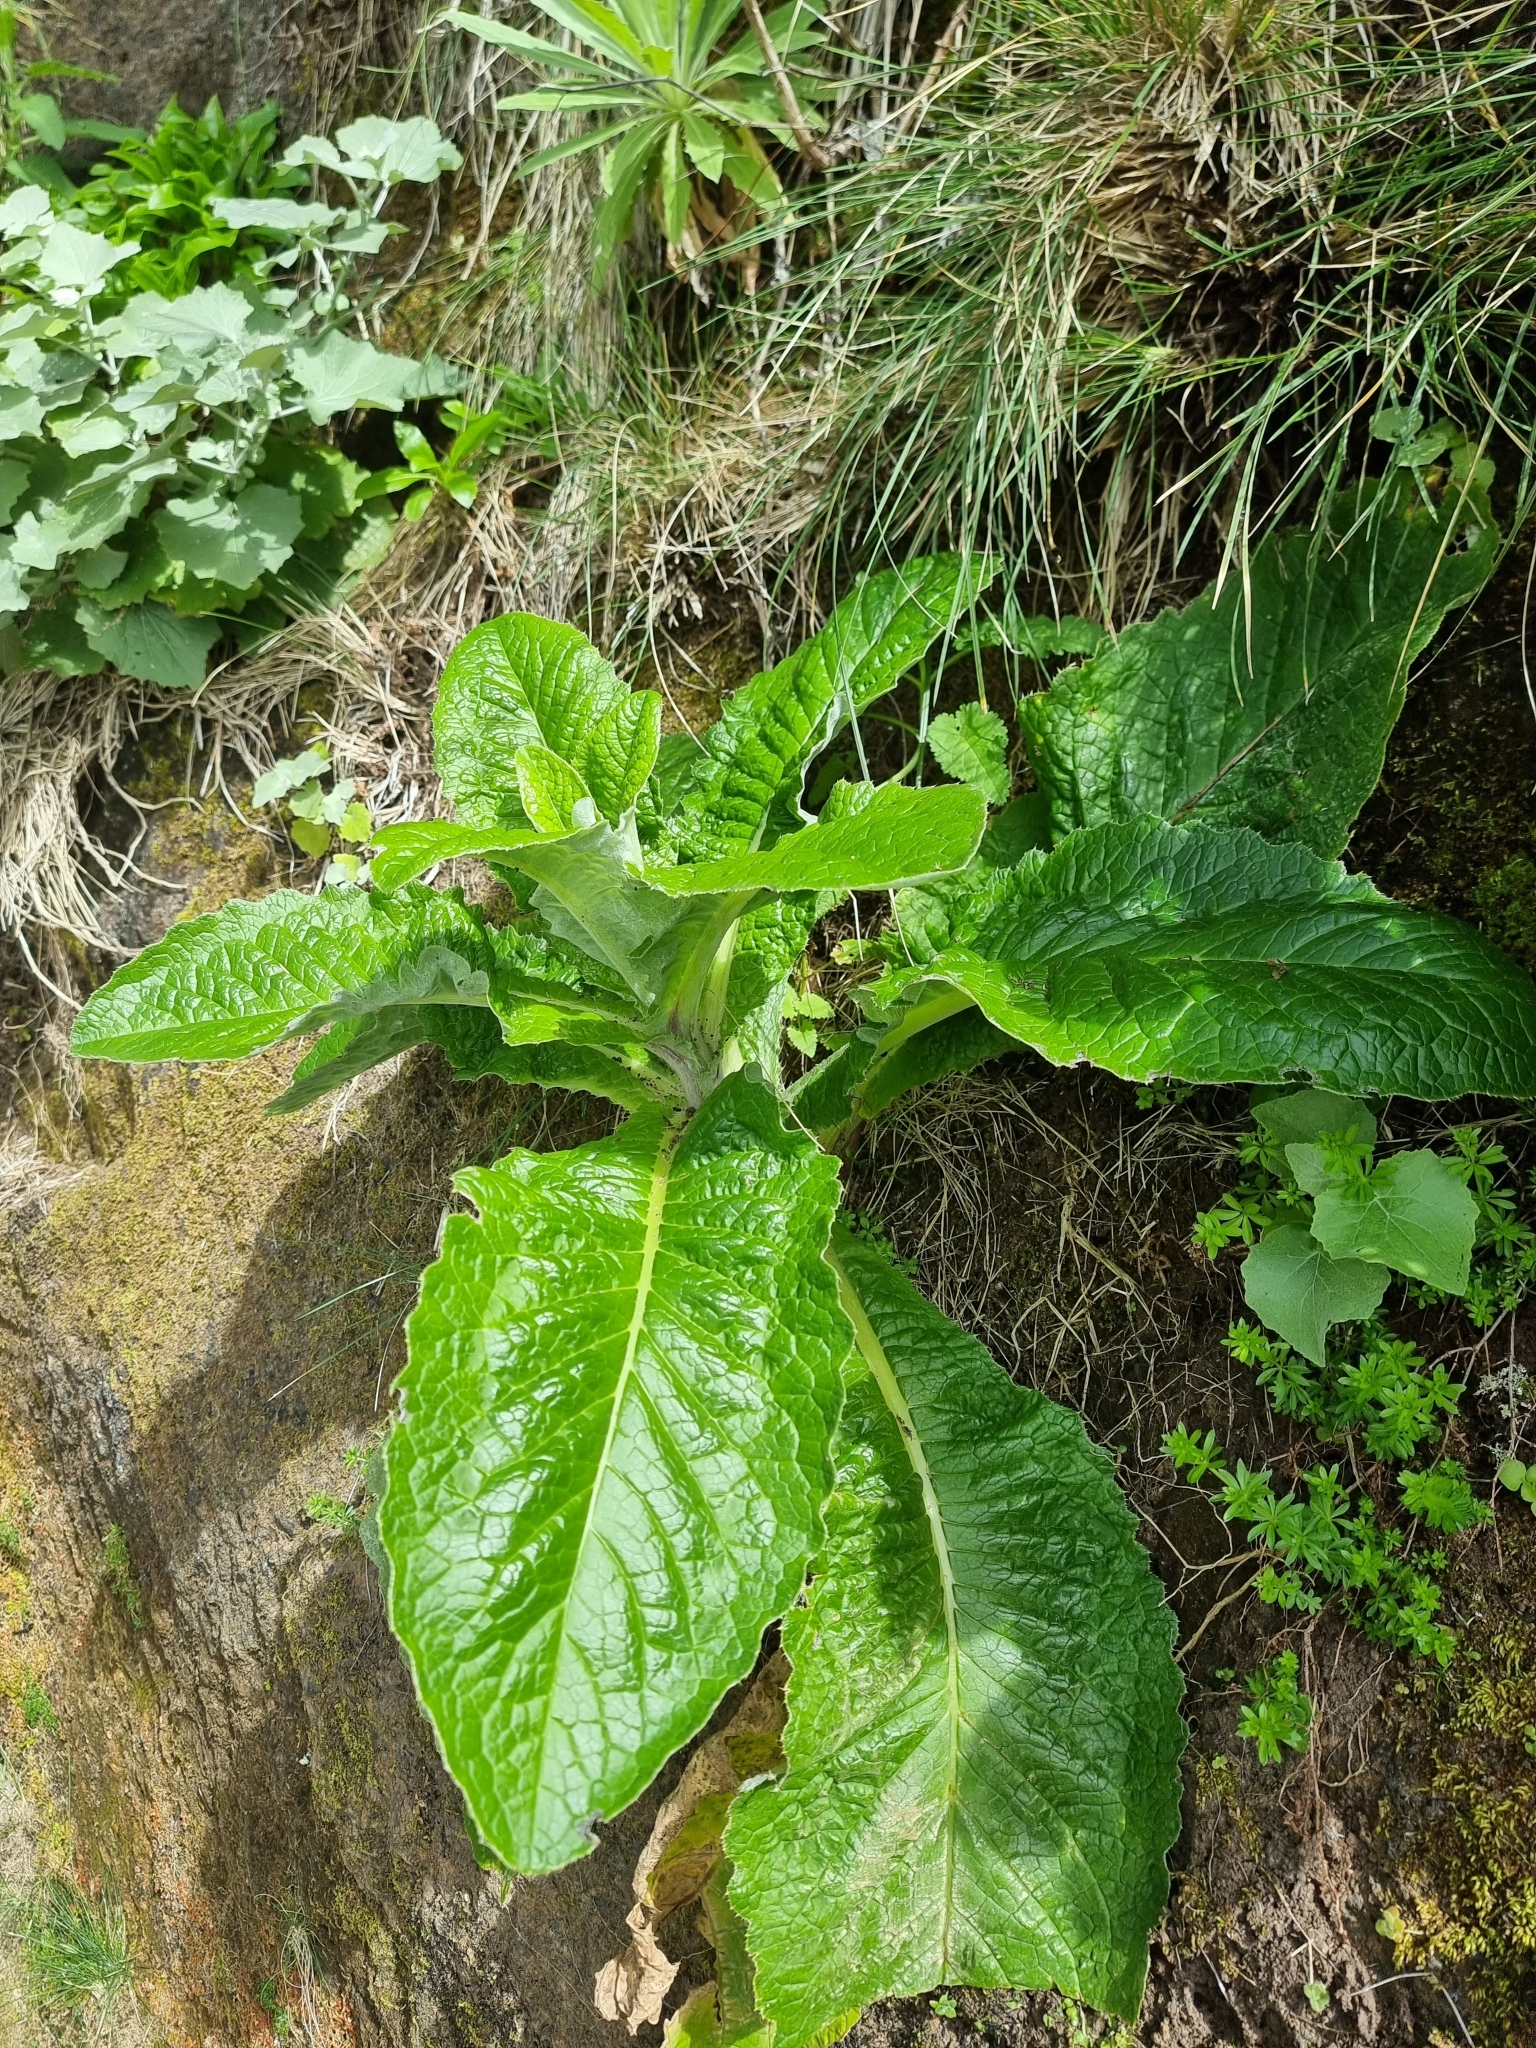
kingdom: Plantae
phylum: Tracheophyta
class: Magnoliopsida
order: Asterales
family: Asteraceae
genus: Cirsium
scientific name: Cirsium latifolium
